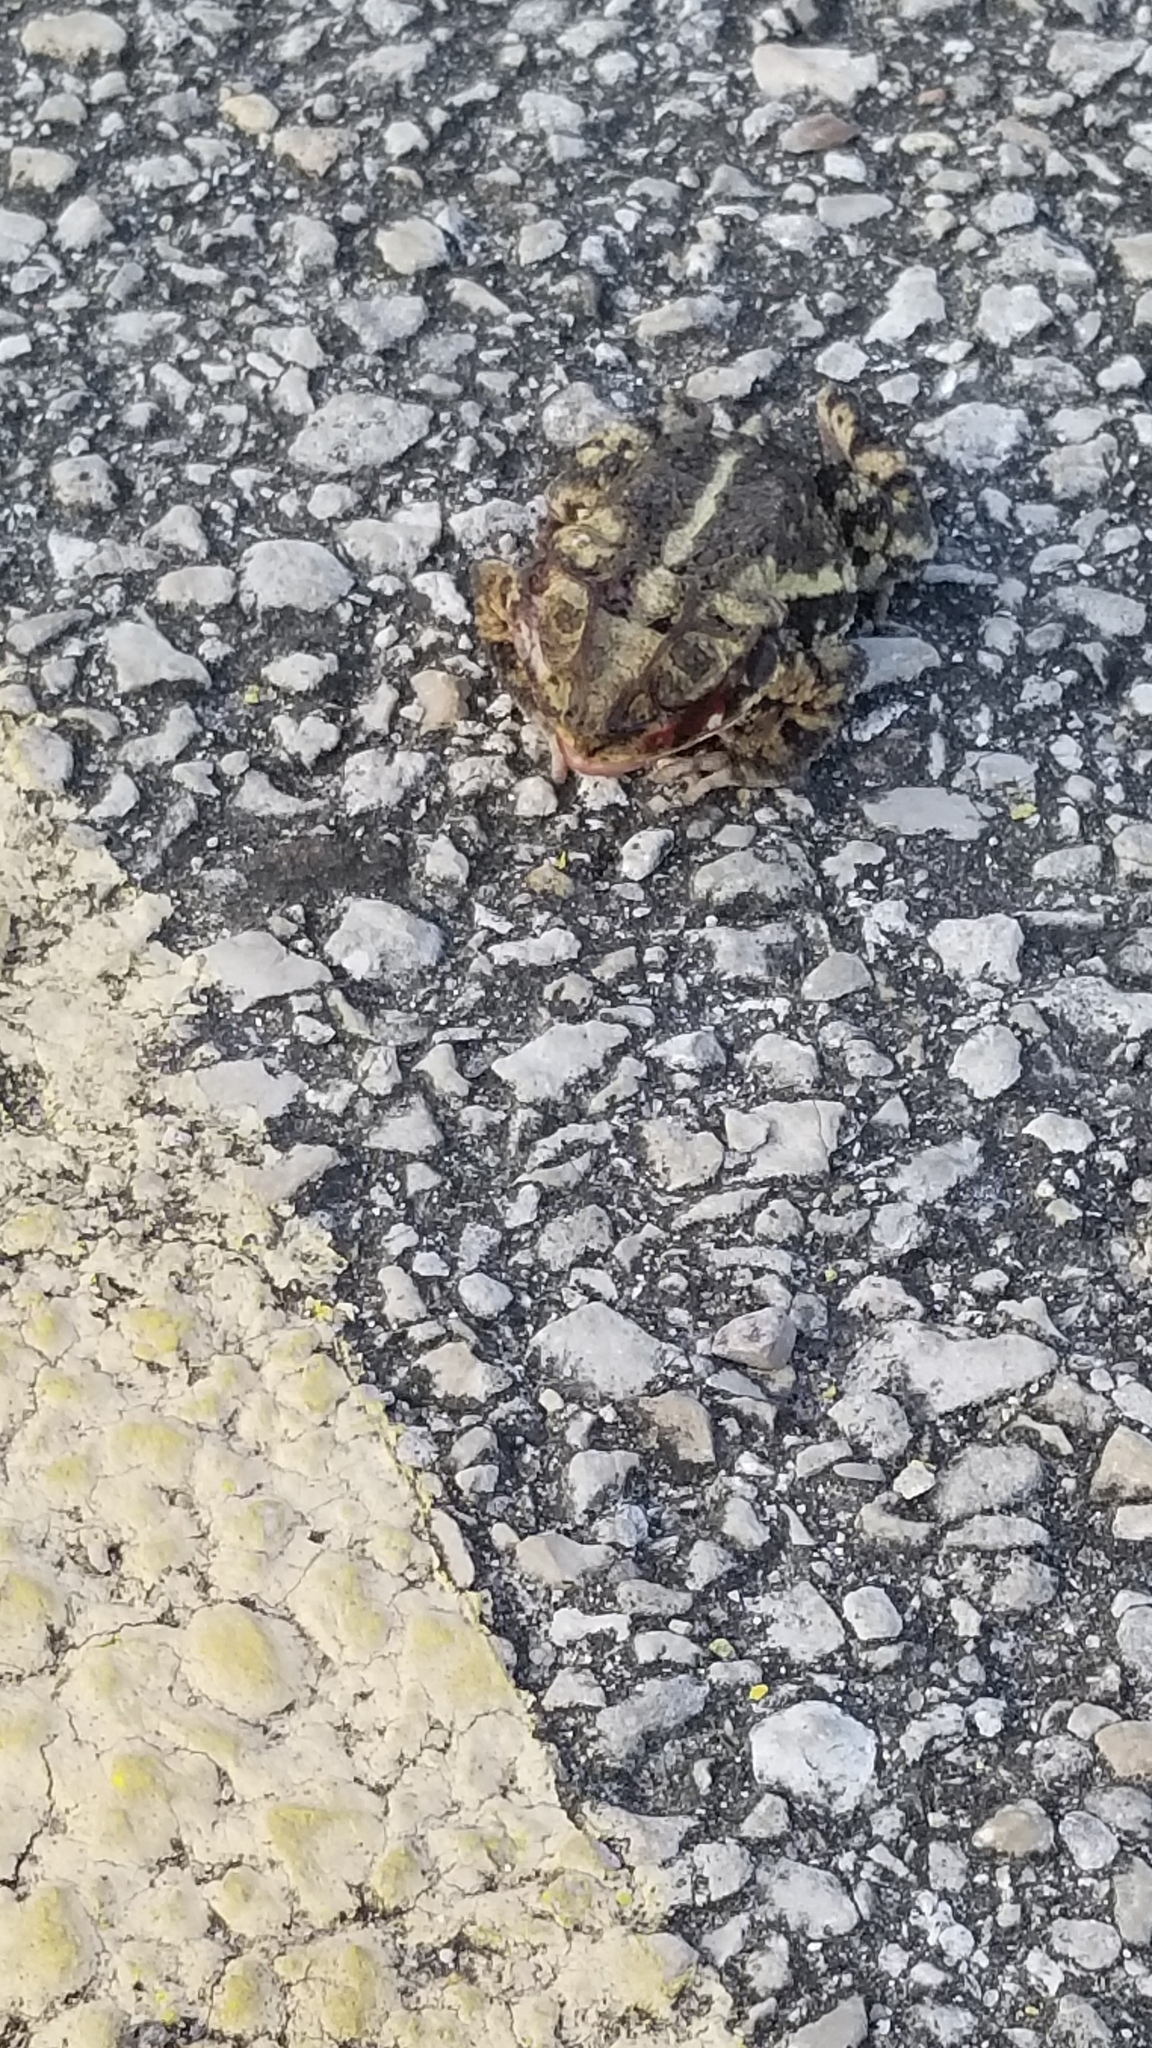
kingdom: Animalia
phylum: Chordata
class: Amphibia
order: Anura
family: Bufonidae
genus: Incilius
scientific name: Incilius nebulifer
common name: Gulf coast toad
